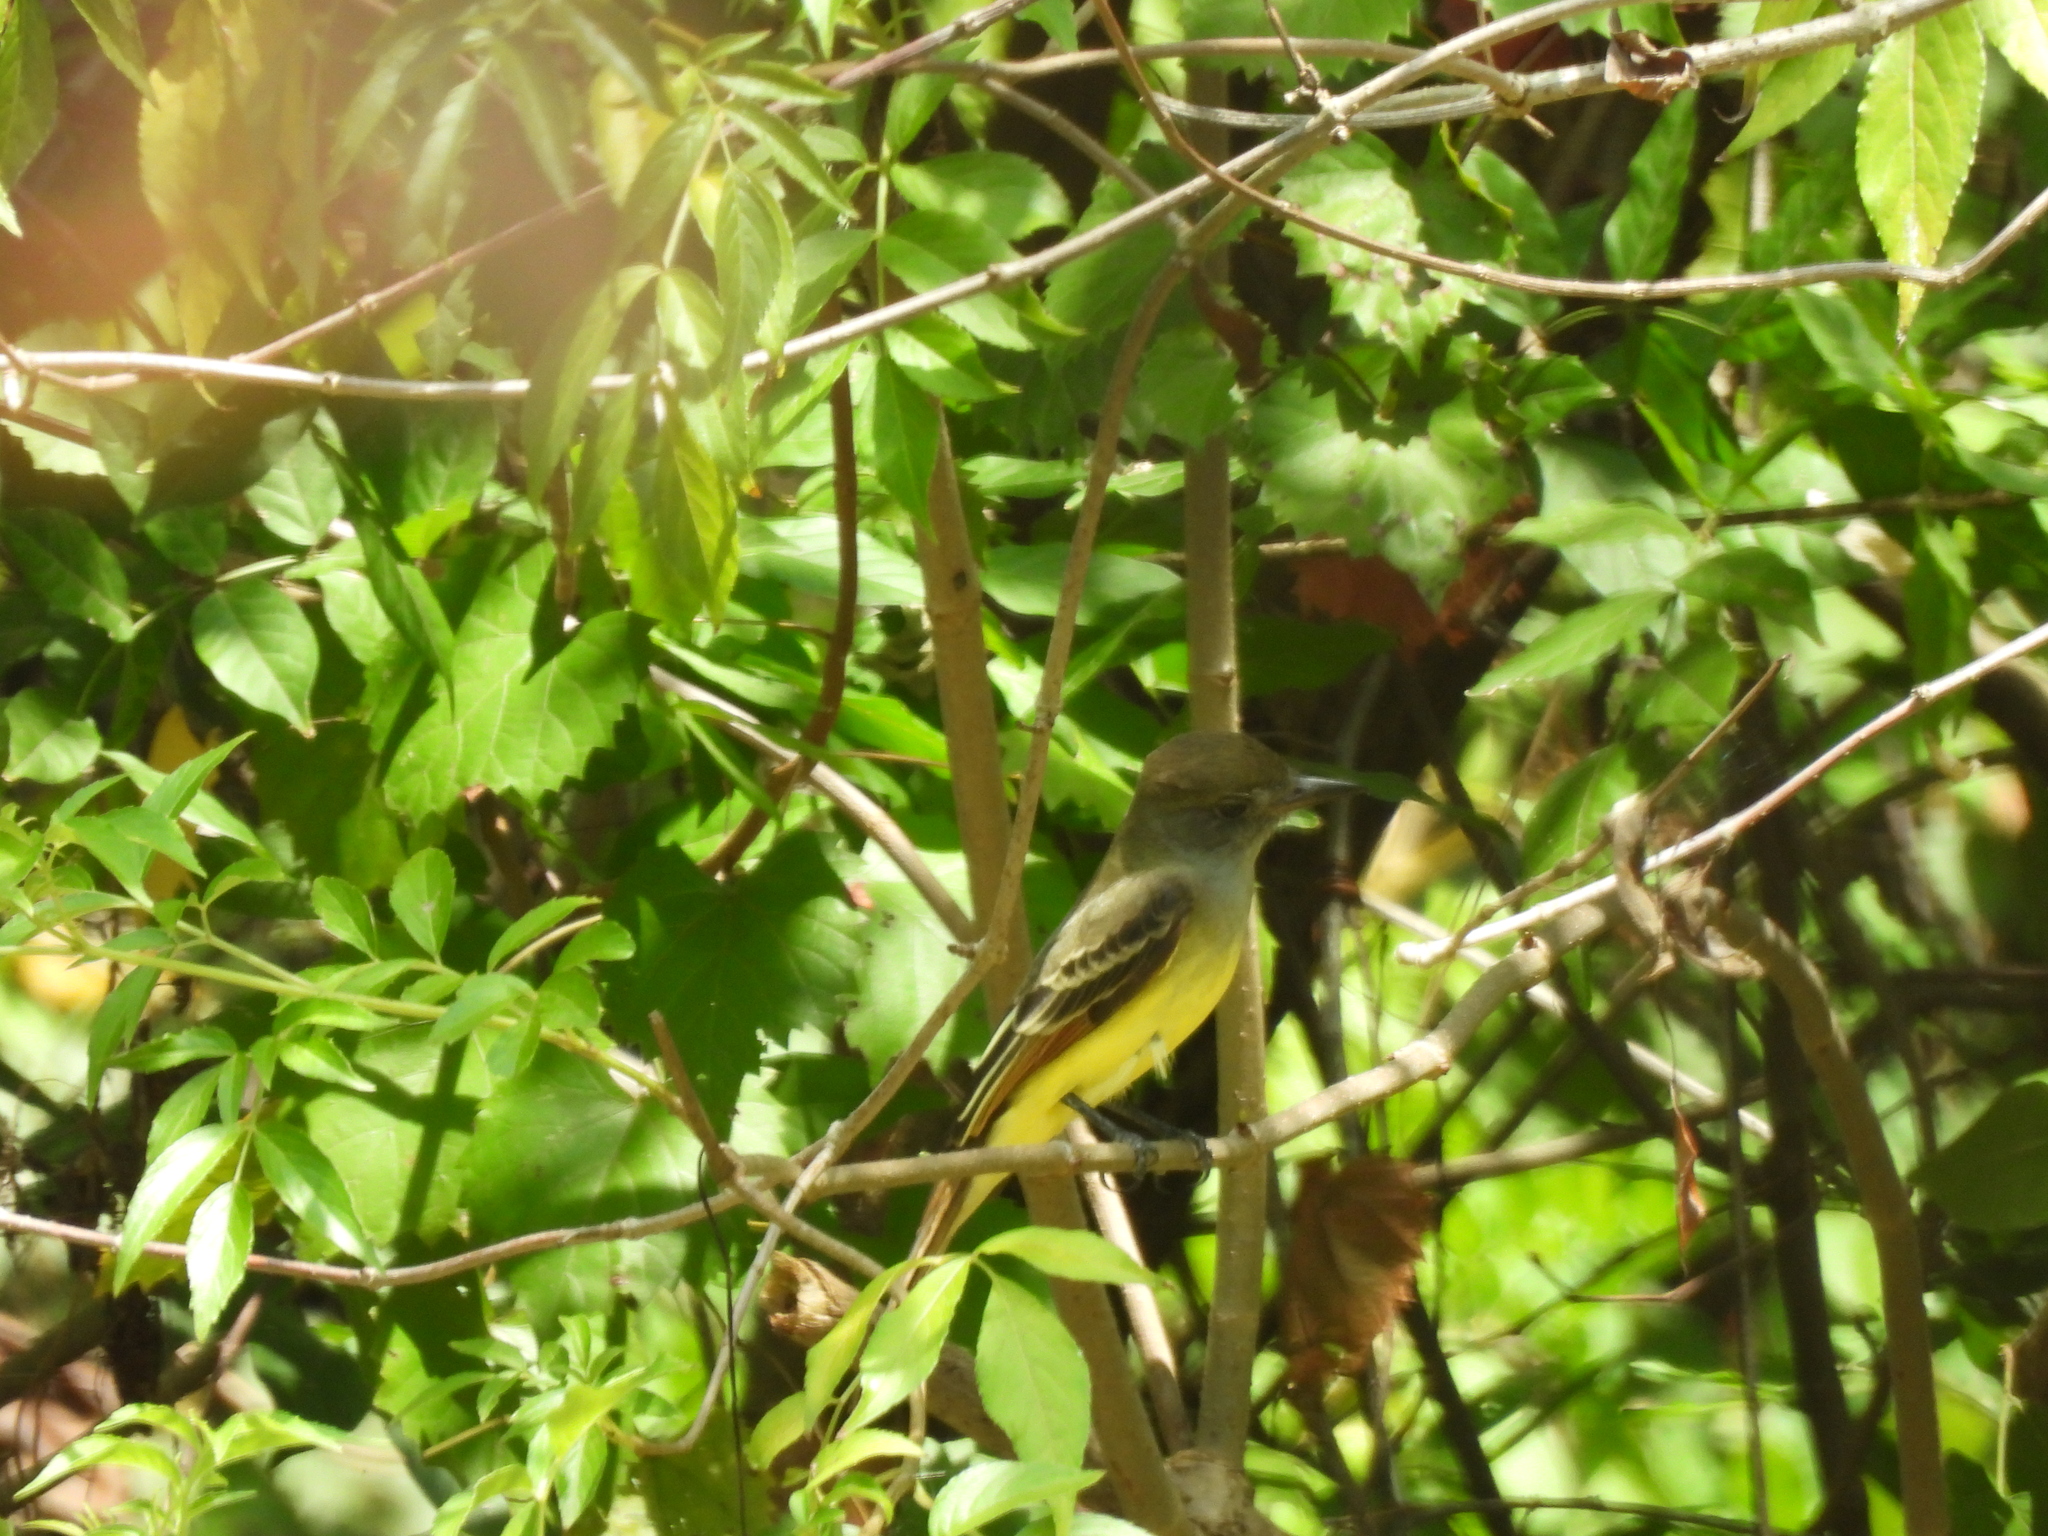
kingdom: Animalia
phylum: Chordata
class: Aves
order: Passeriformes
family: Tyrannidae
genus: Myiarchus
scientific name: Myiarchus crinitus
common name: Great crested flycatcher
